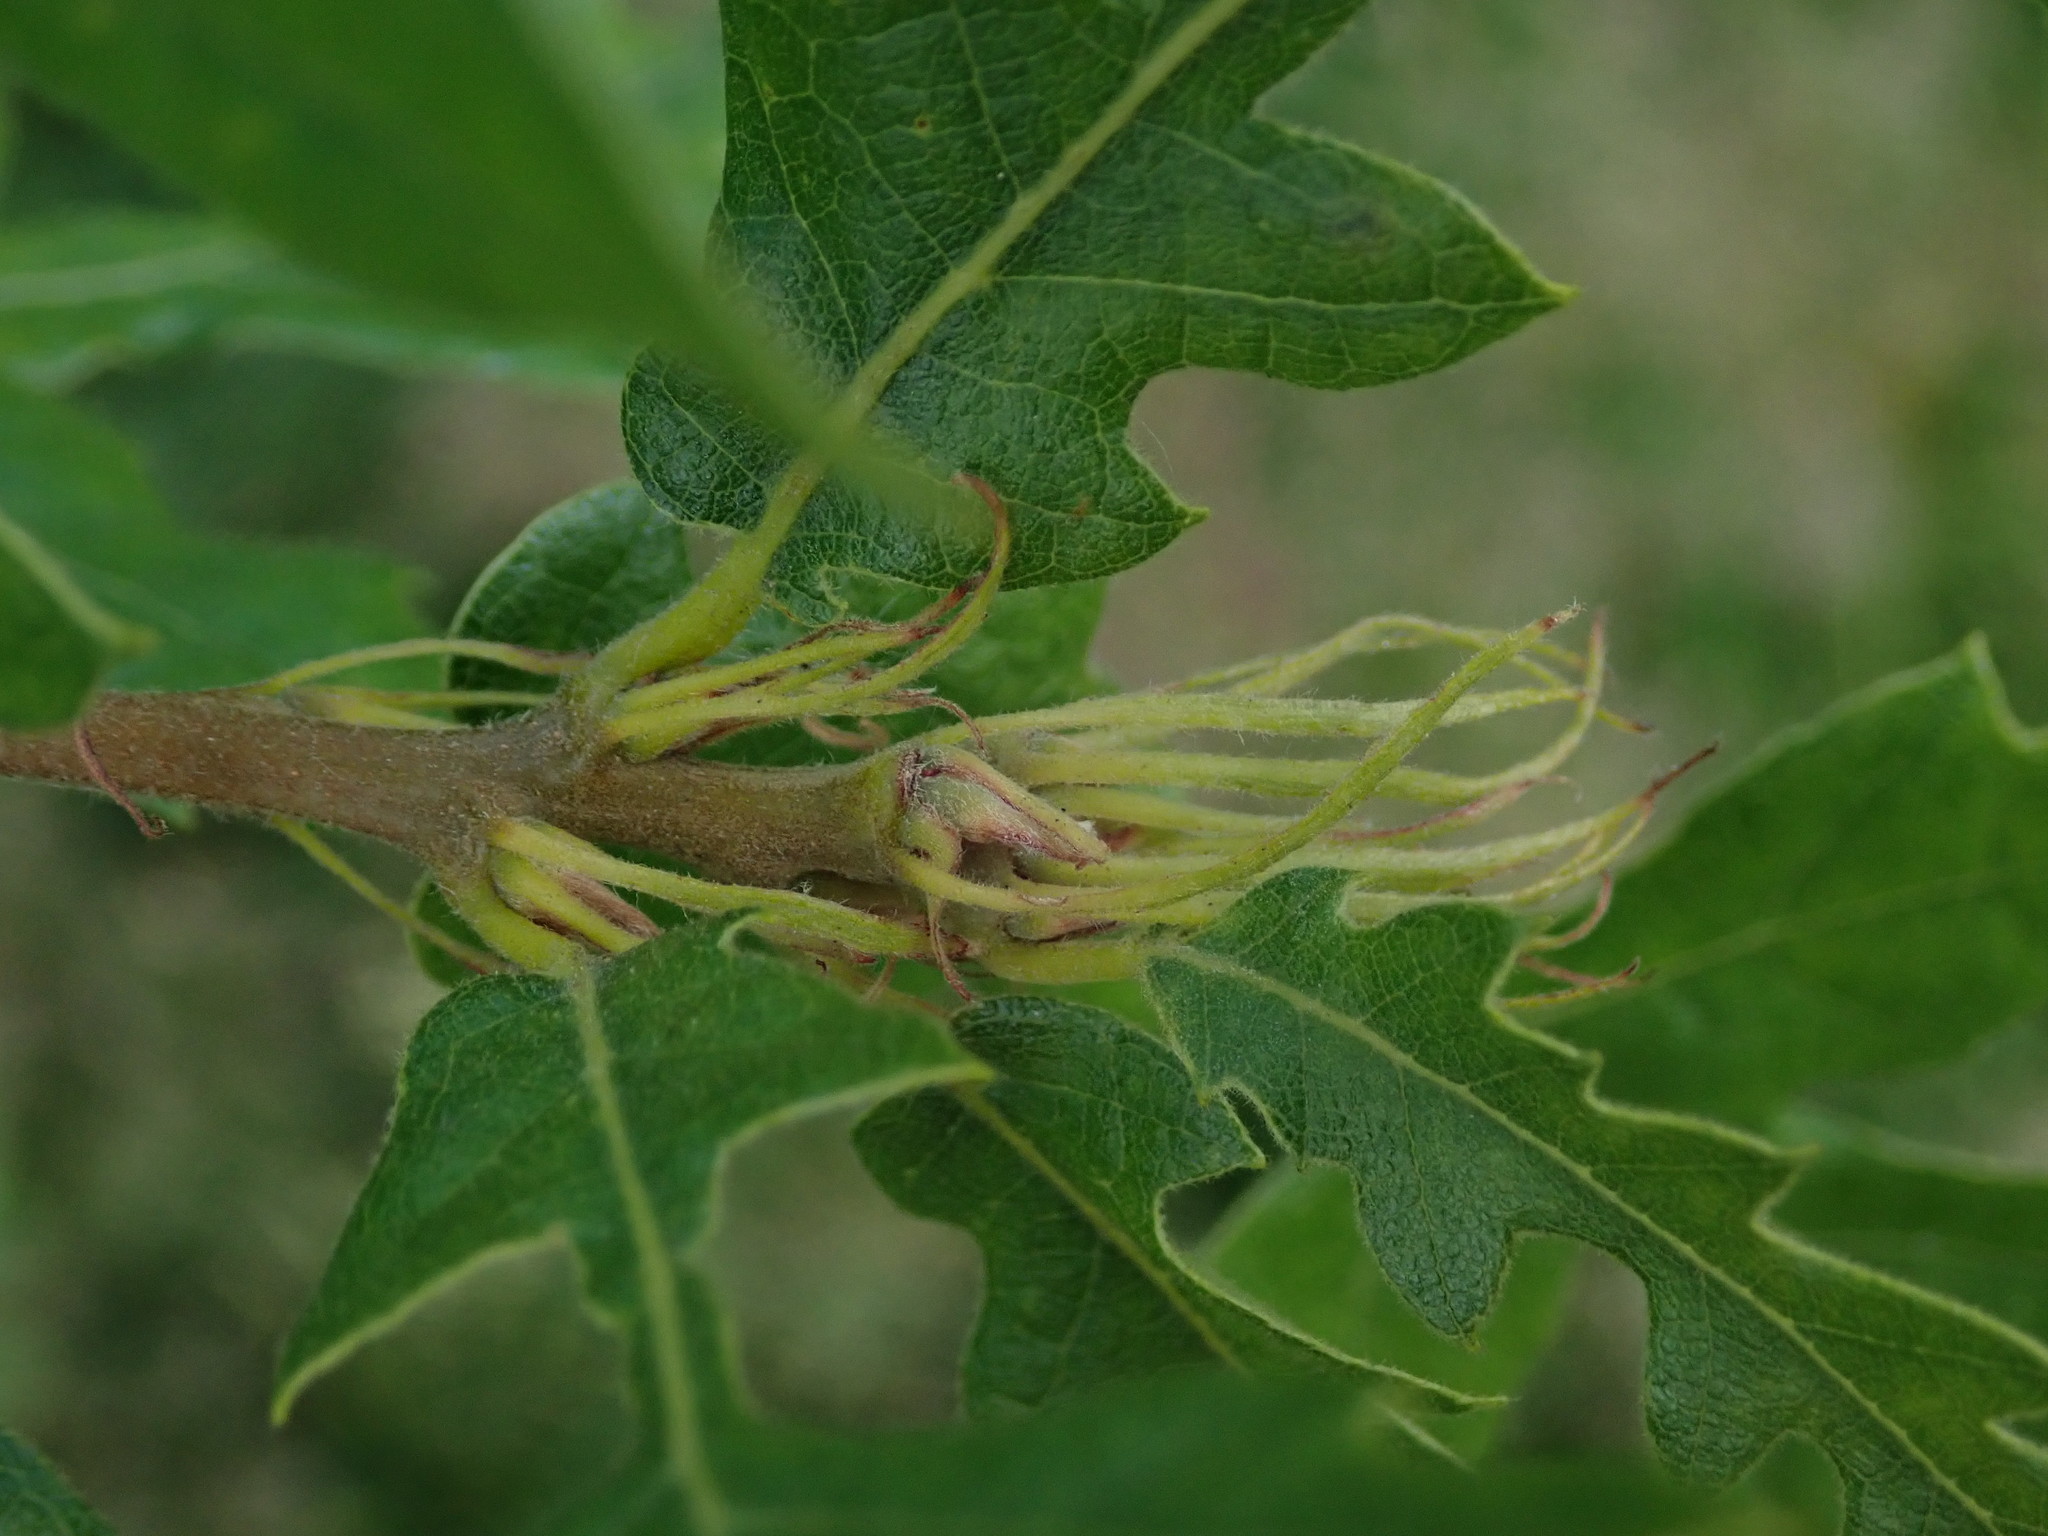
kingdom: Plantae
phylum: Tracheophyta
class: Magnoliopsida
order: Fagales
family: Fagaceae
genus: Quercus
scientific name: Quercus cerris
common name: Turkey oak
